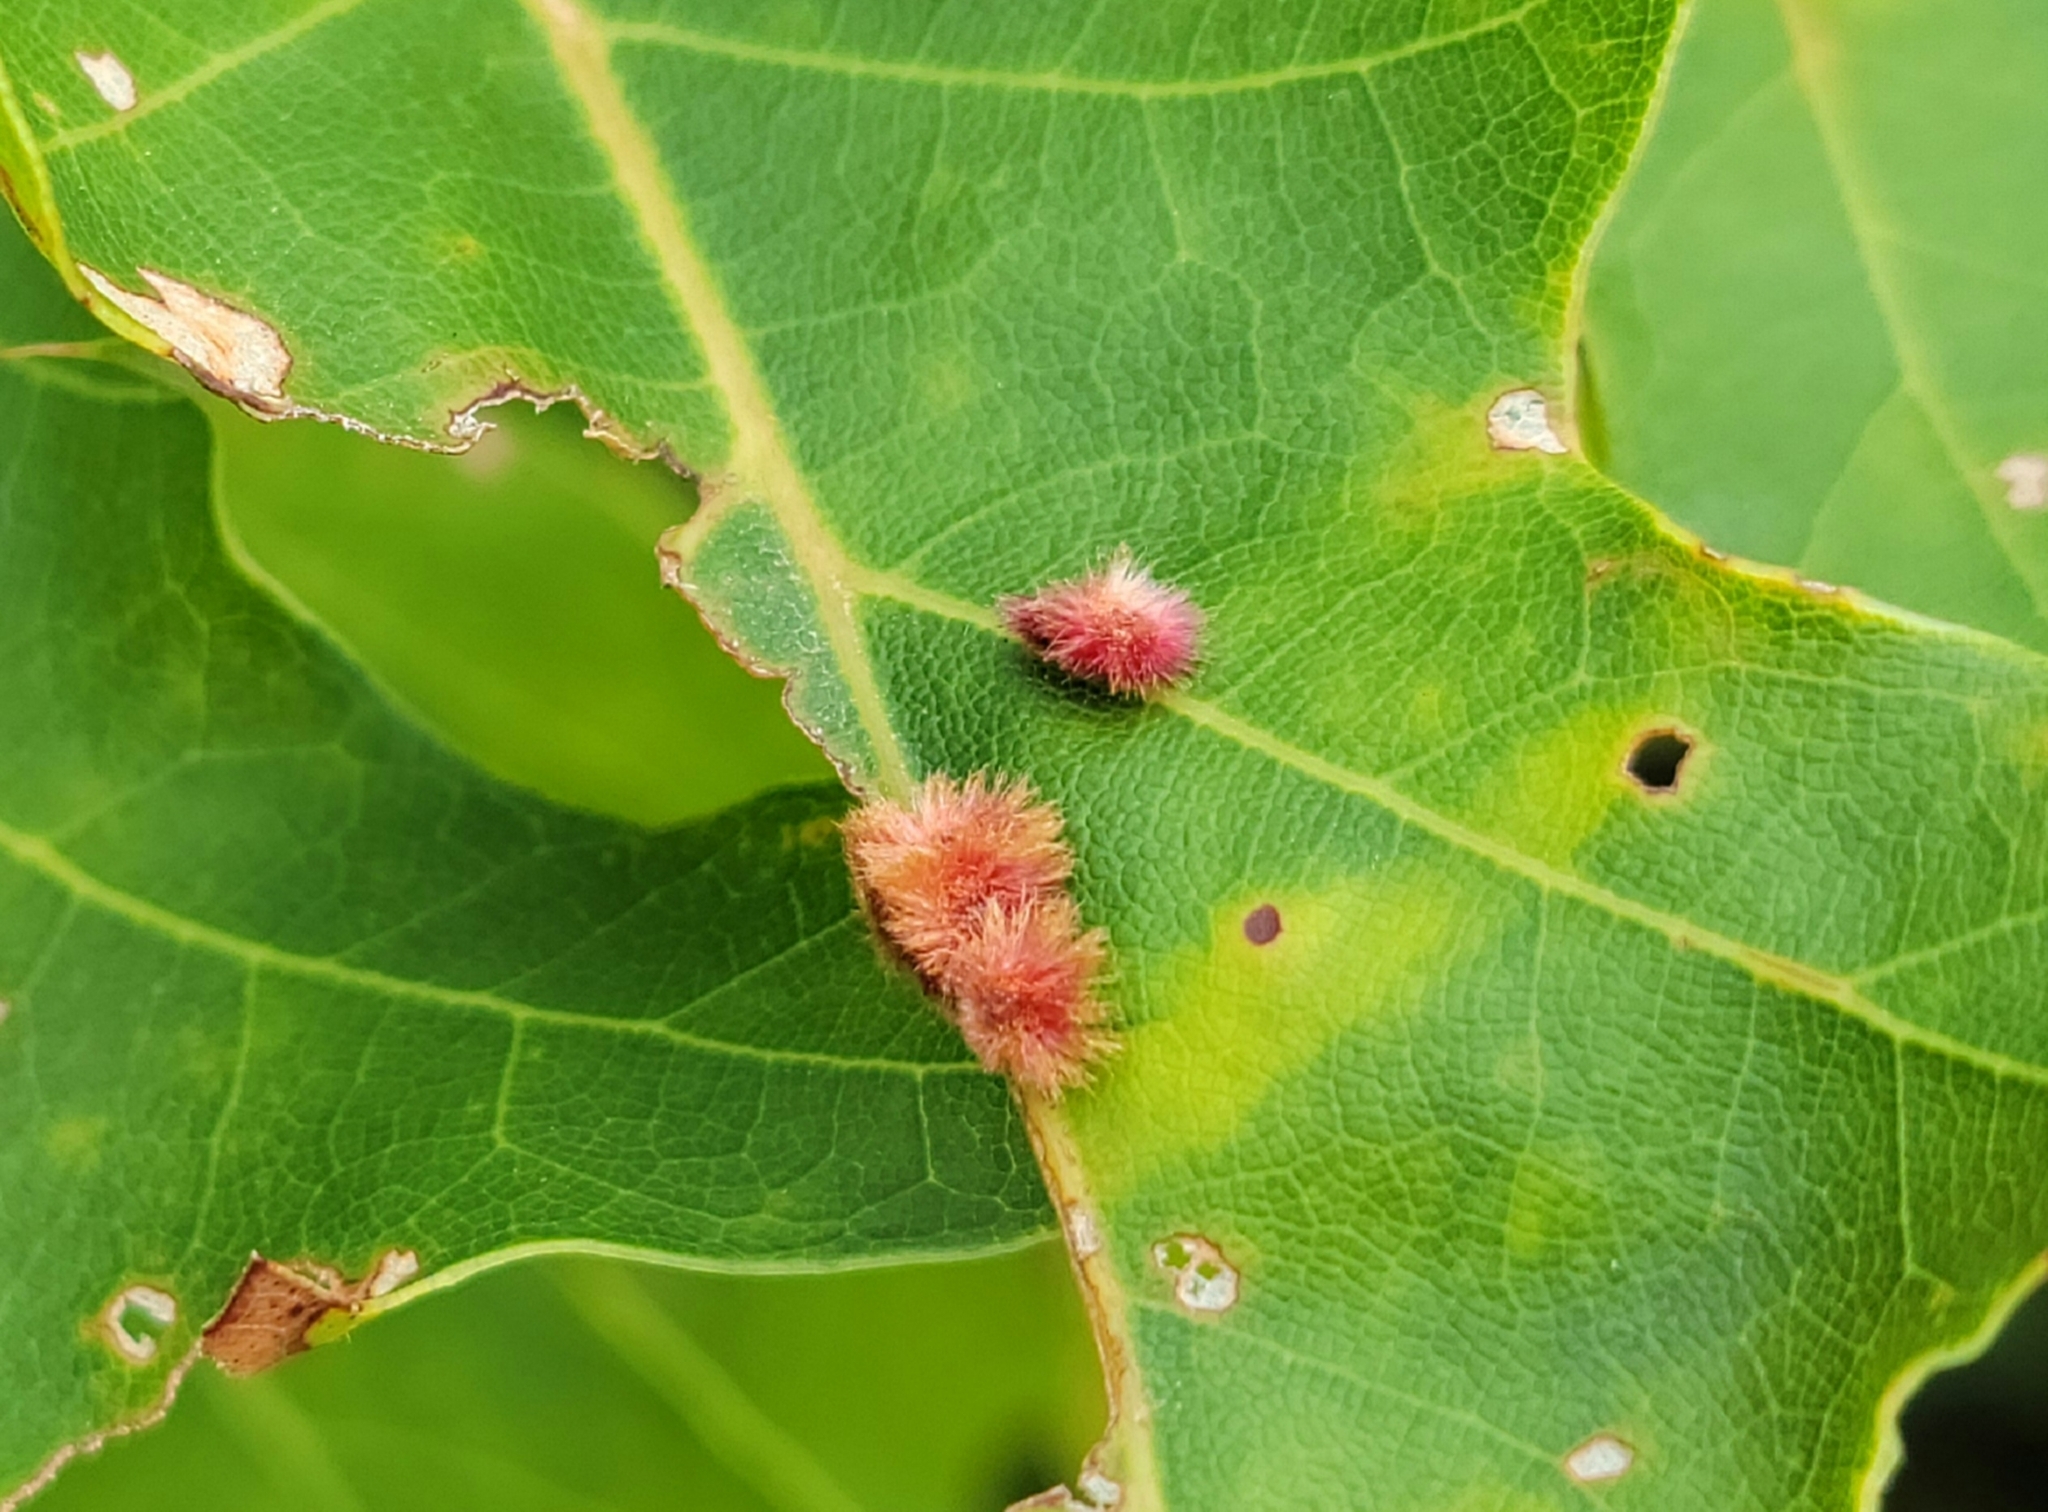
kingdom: Animalia
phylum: Arthropoda
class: Insecta
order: Hymenoptera
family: Cynipidae
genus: Callirhytis
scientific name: Callirhytis
